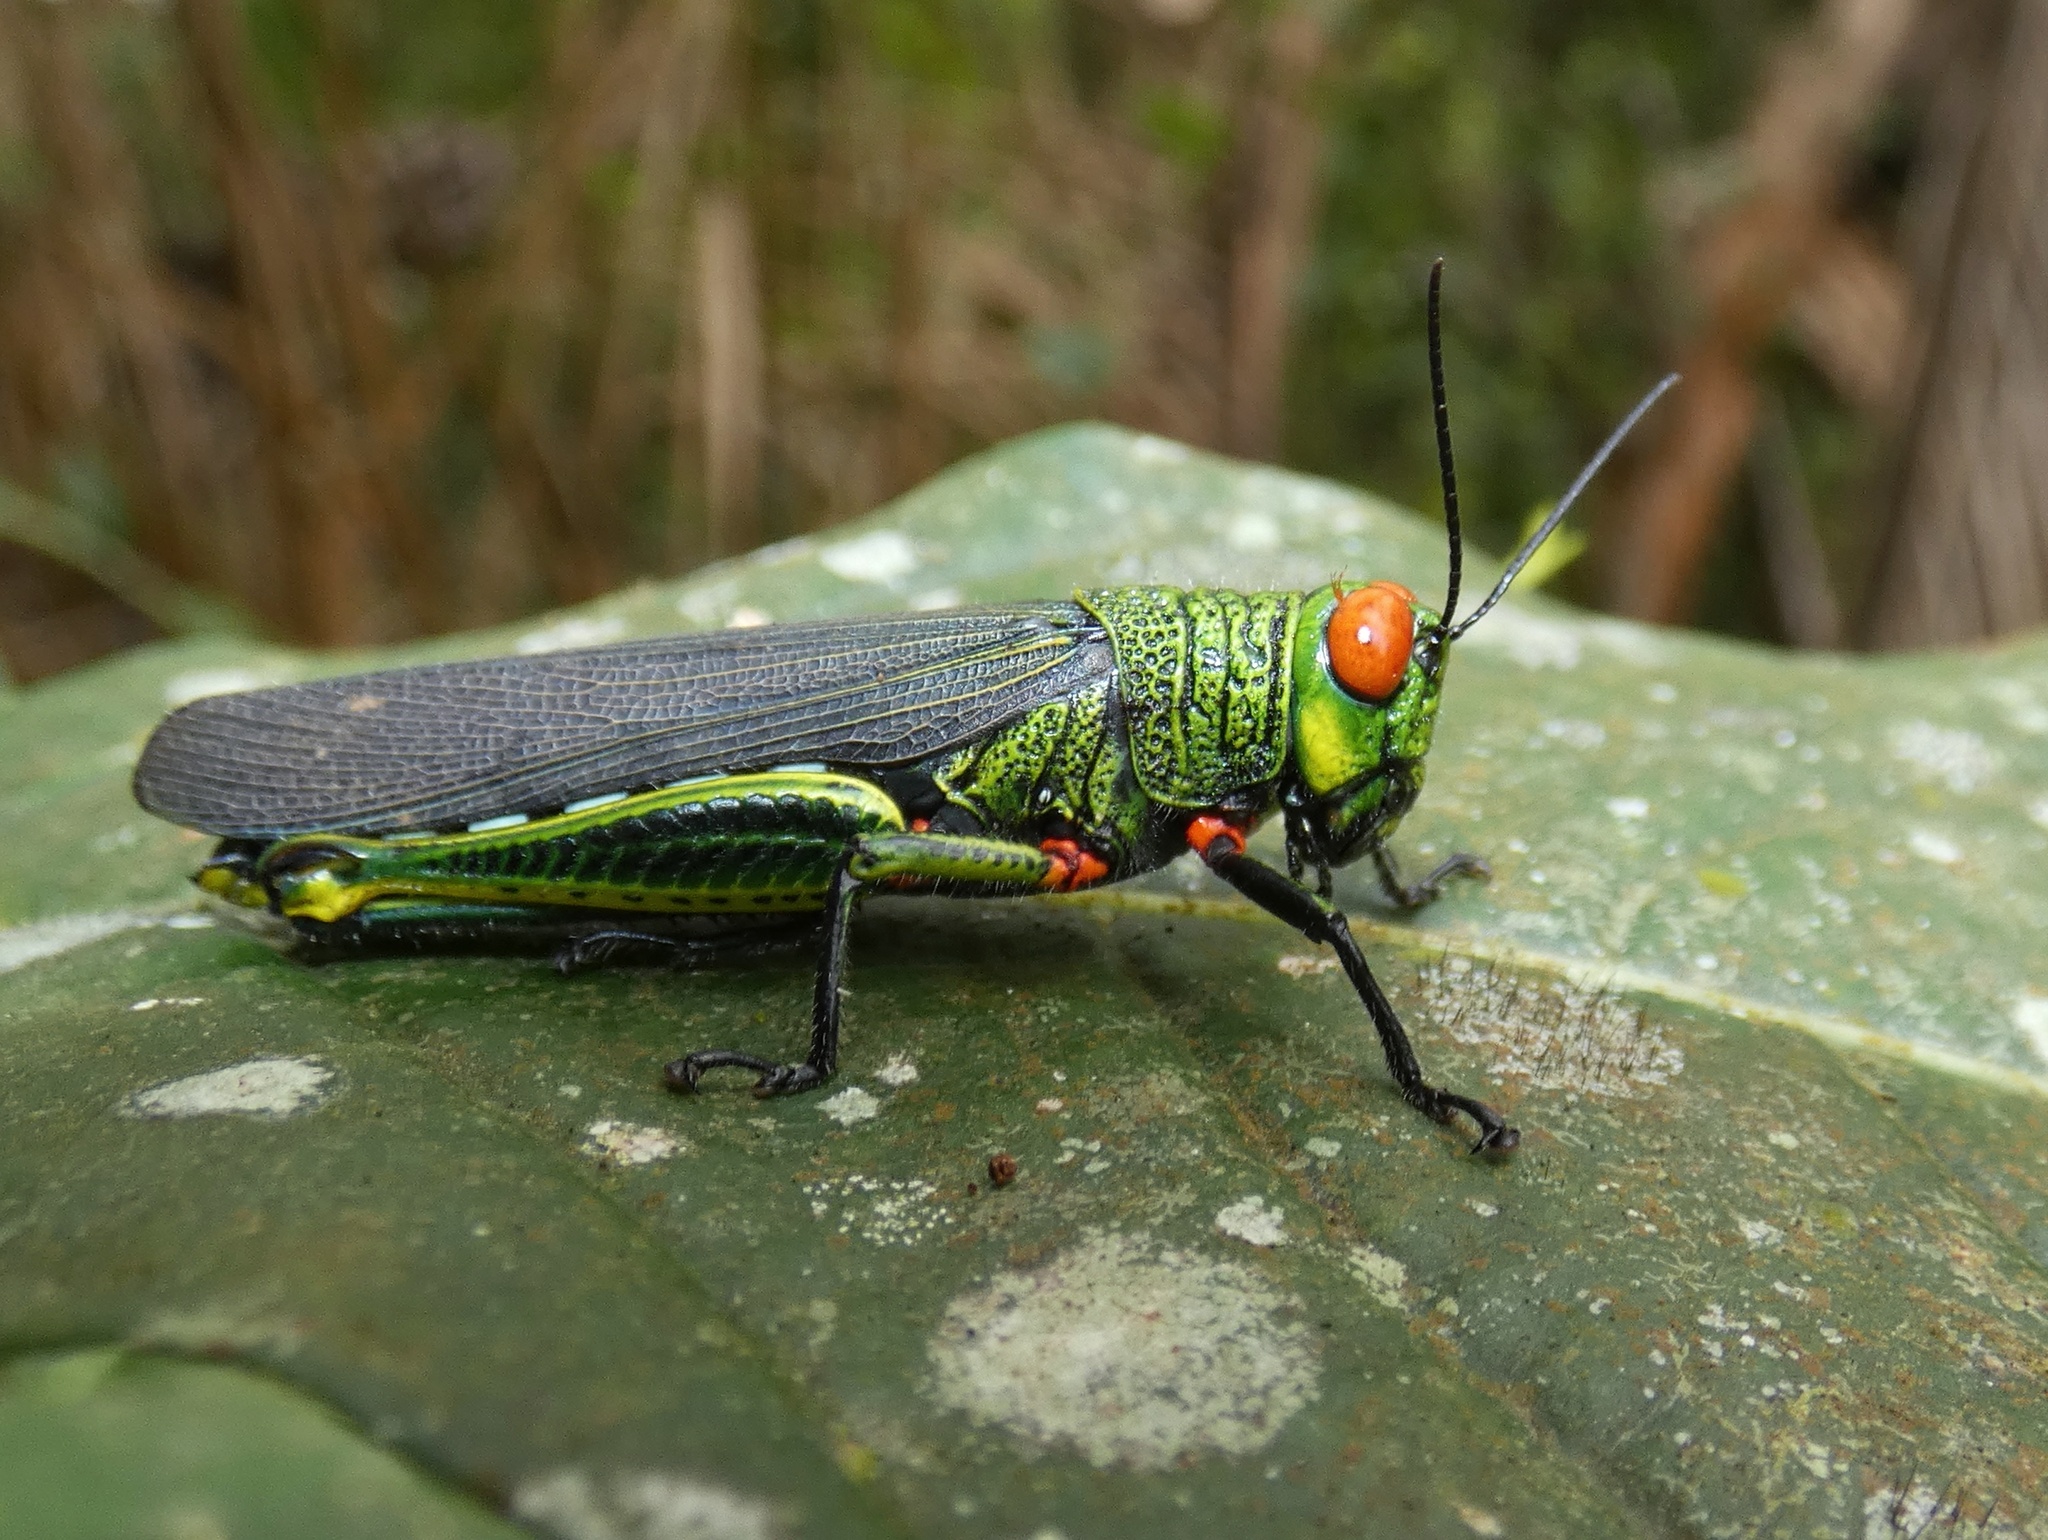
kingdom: Animalia
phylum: Arthropoda
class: Insecta
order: Orthoptera
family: Acrididae
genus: Coscineuta
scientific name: Coscineuta coxalis
